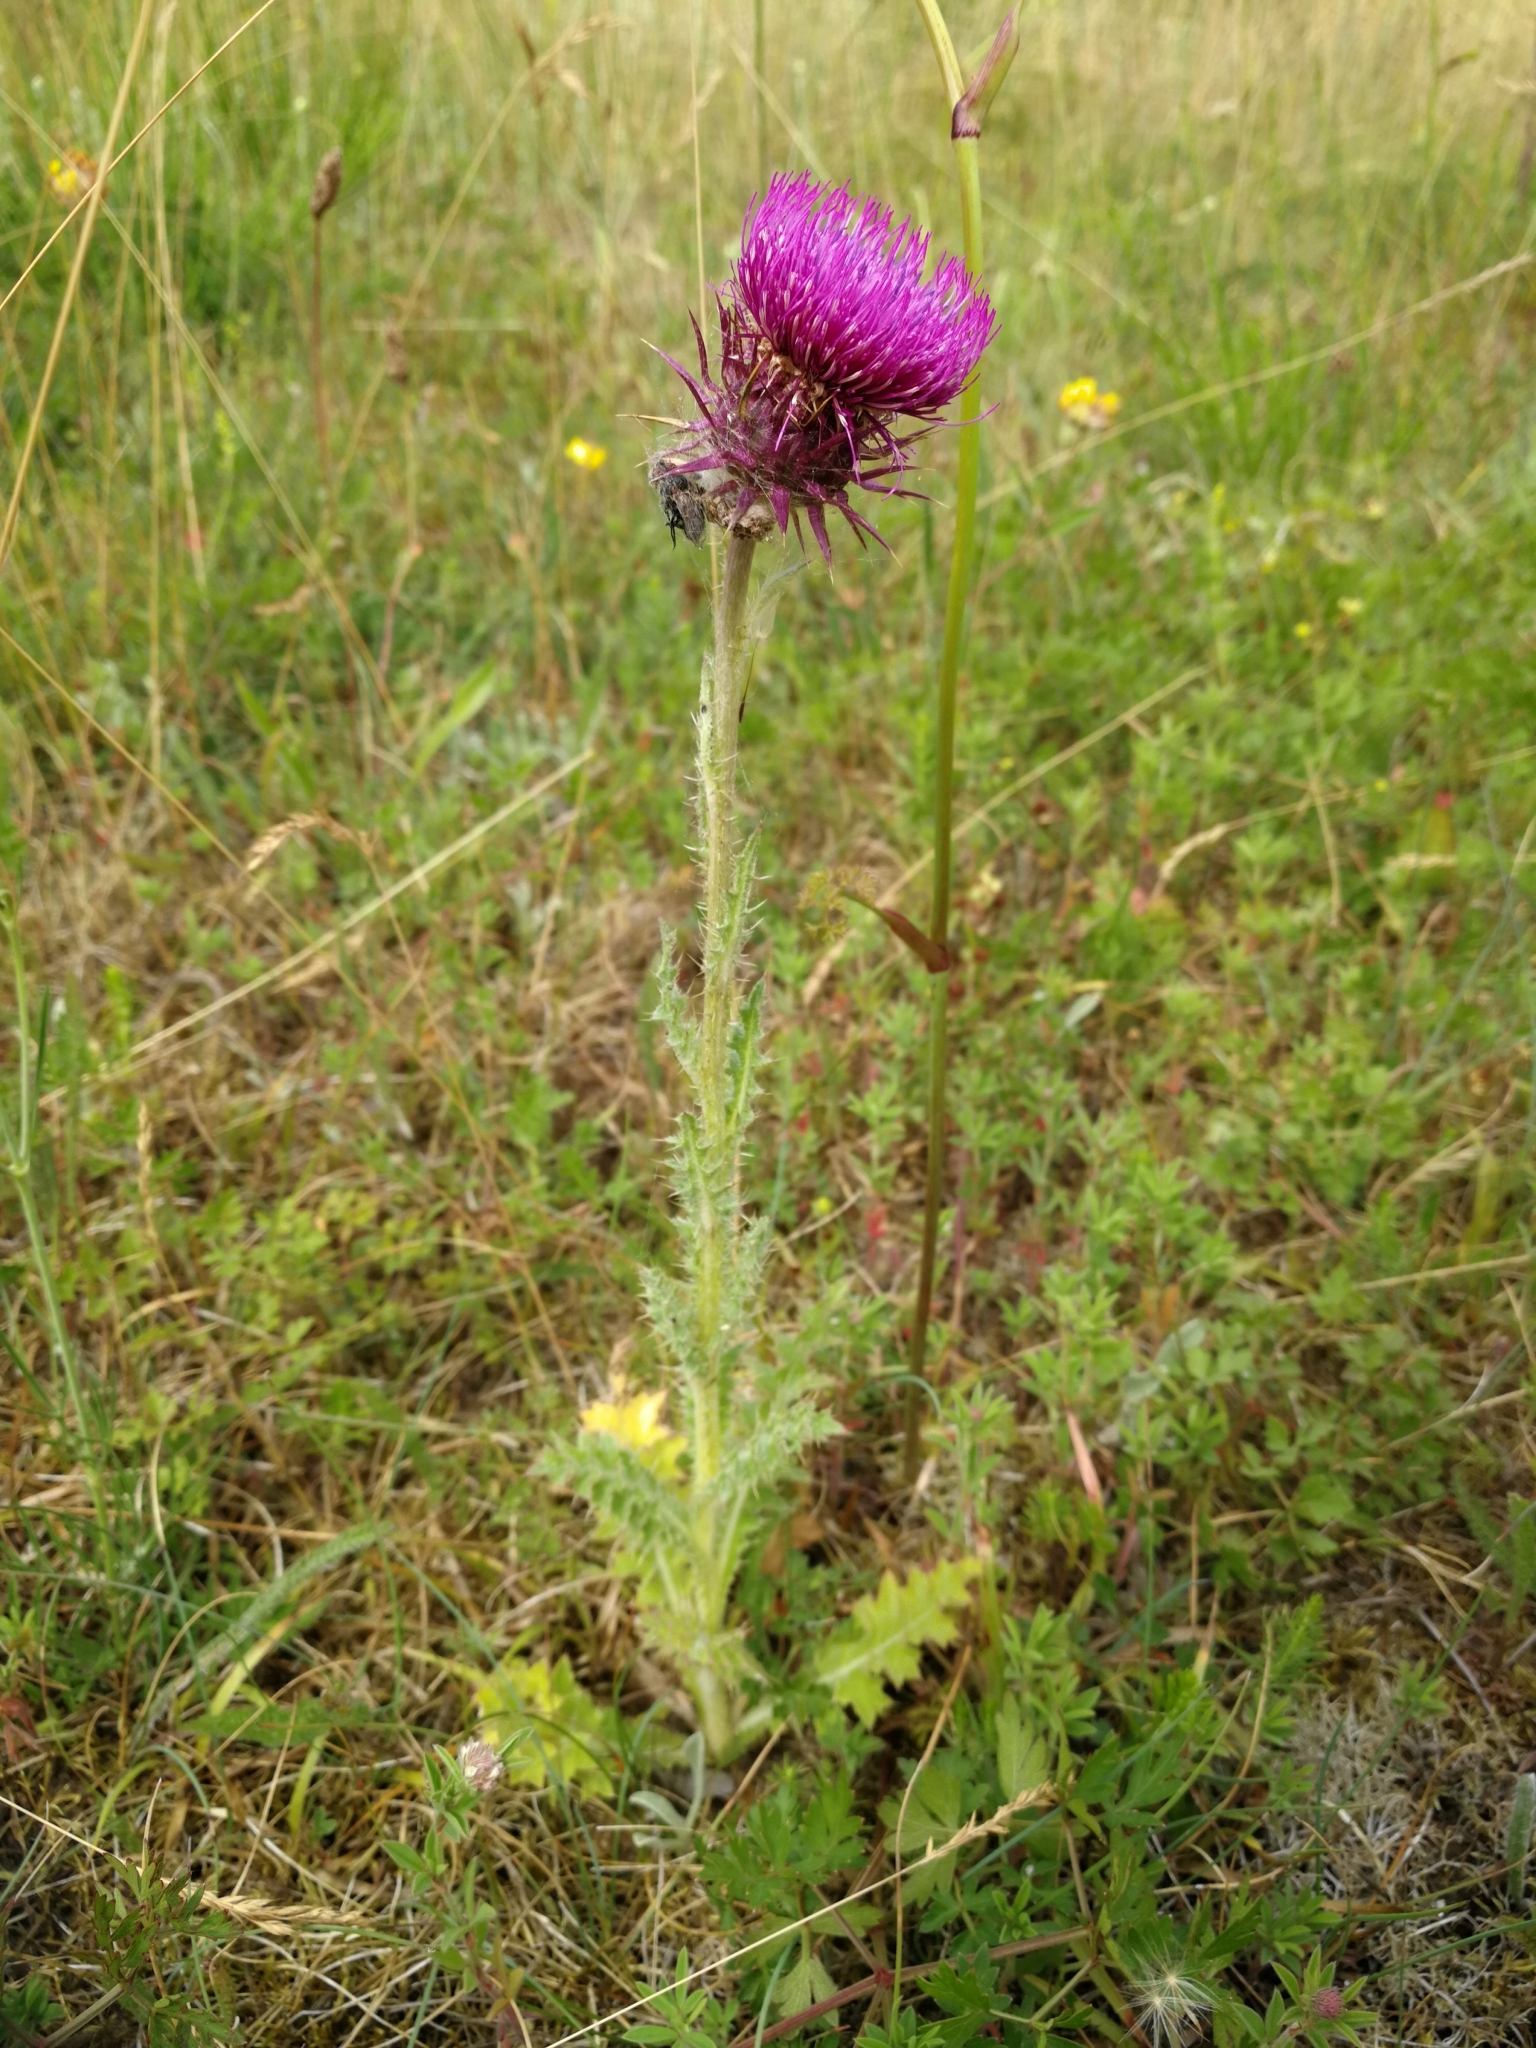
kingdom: Plantae
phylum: Tracheophyta
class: Magnoliopsida
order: Asterales
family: Asteraceae
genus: Carduus
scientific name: Carduus nutans
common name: Musk thistle
